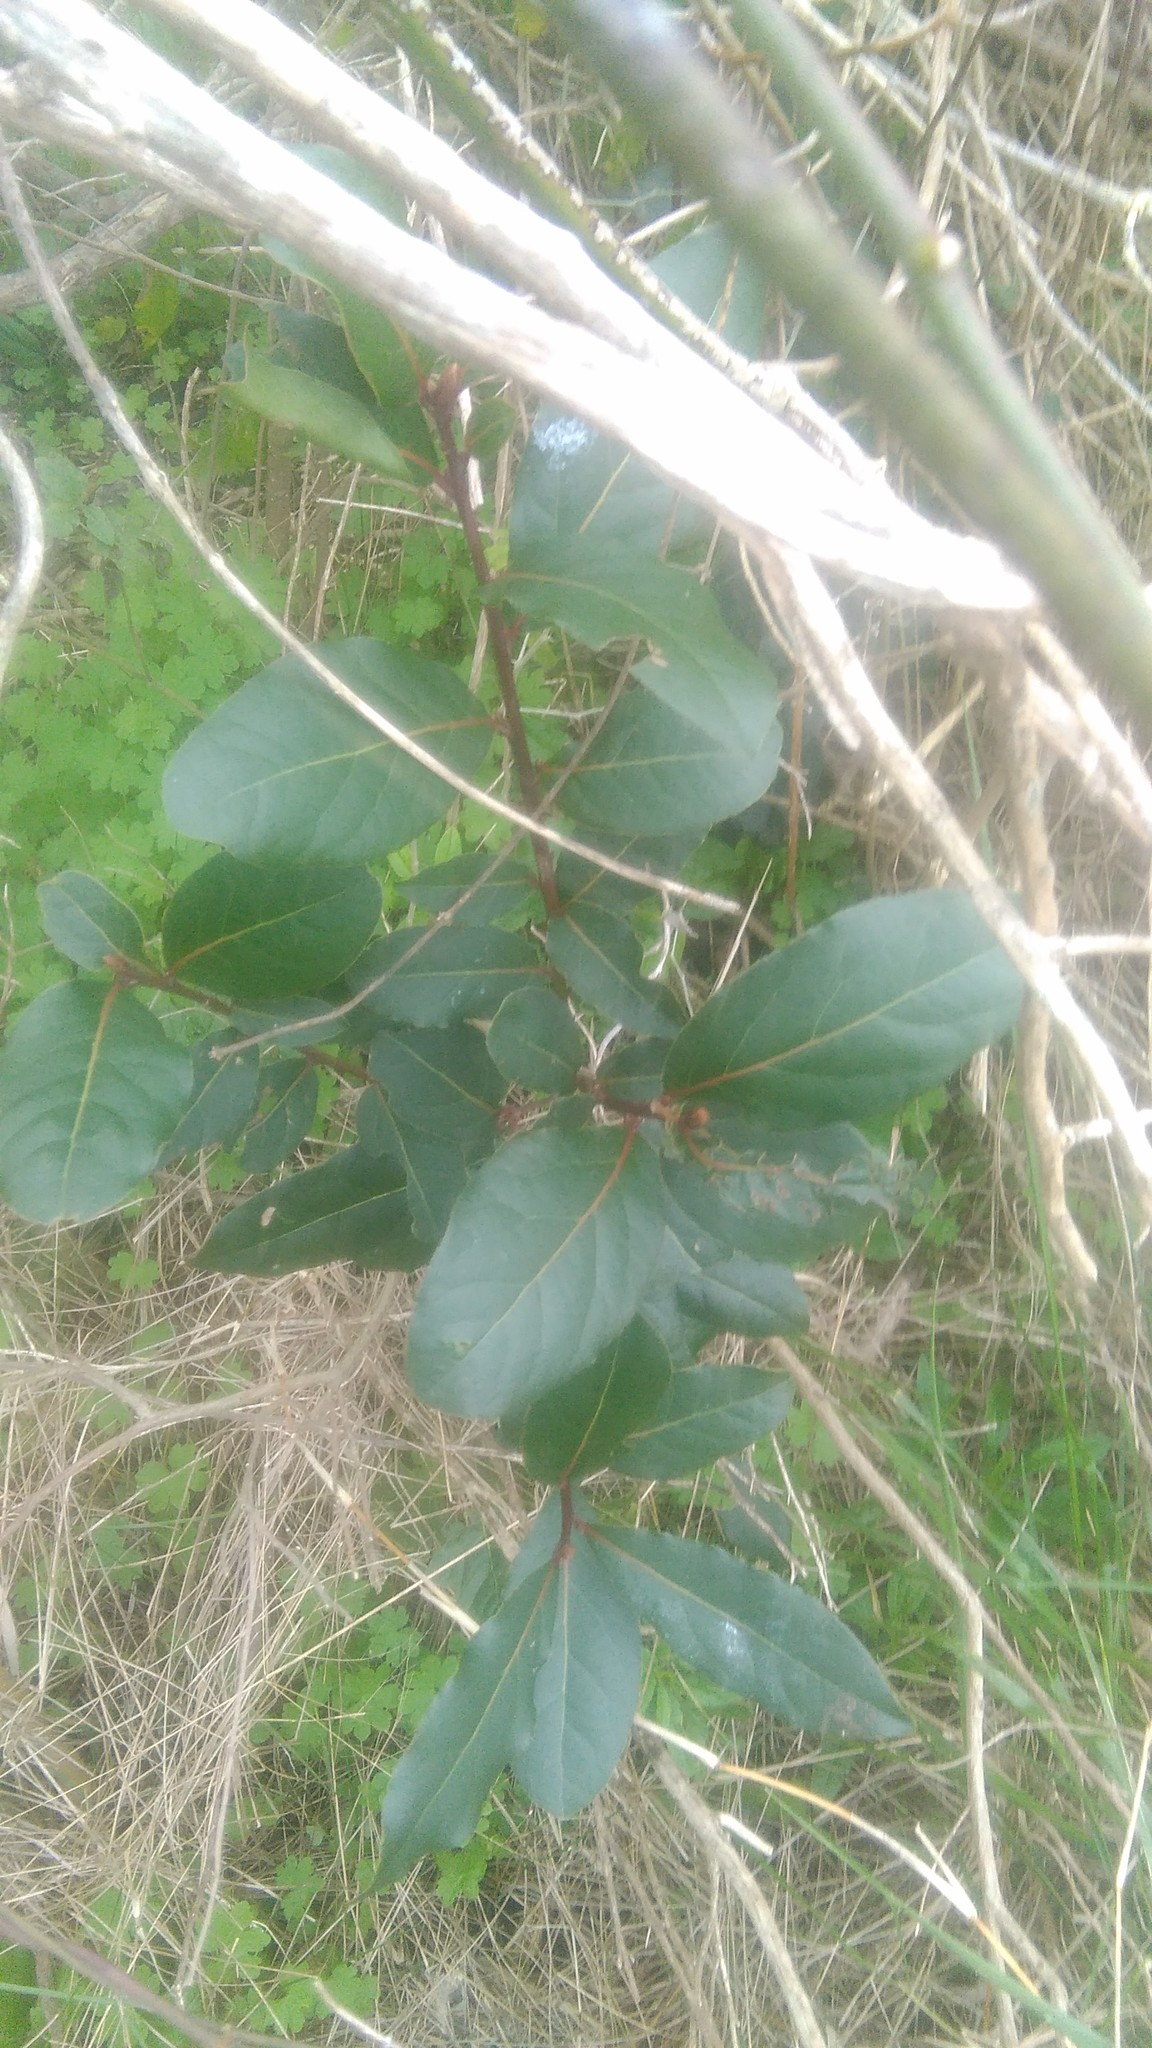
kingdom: Plantae
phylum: Tracheophyta
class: Magnoliopsida
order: Laurales
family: Lauraceae
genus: Laurus
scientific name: Laurus nobilis
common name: Bay
